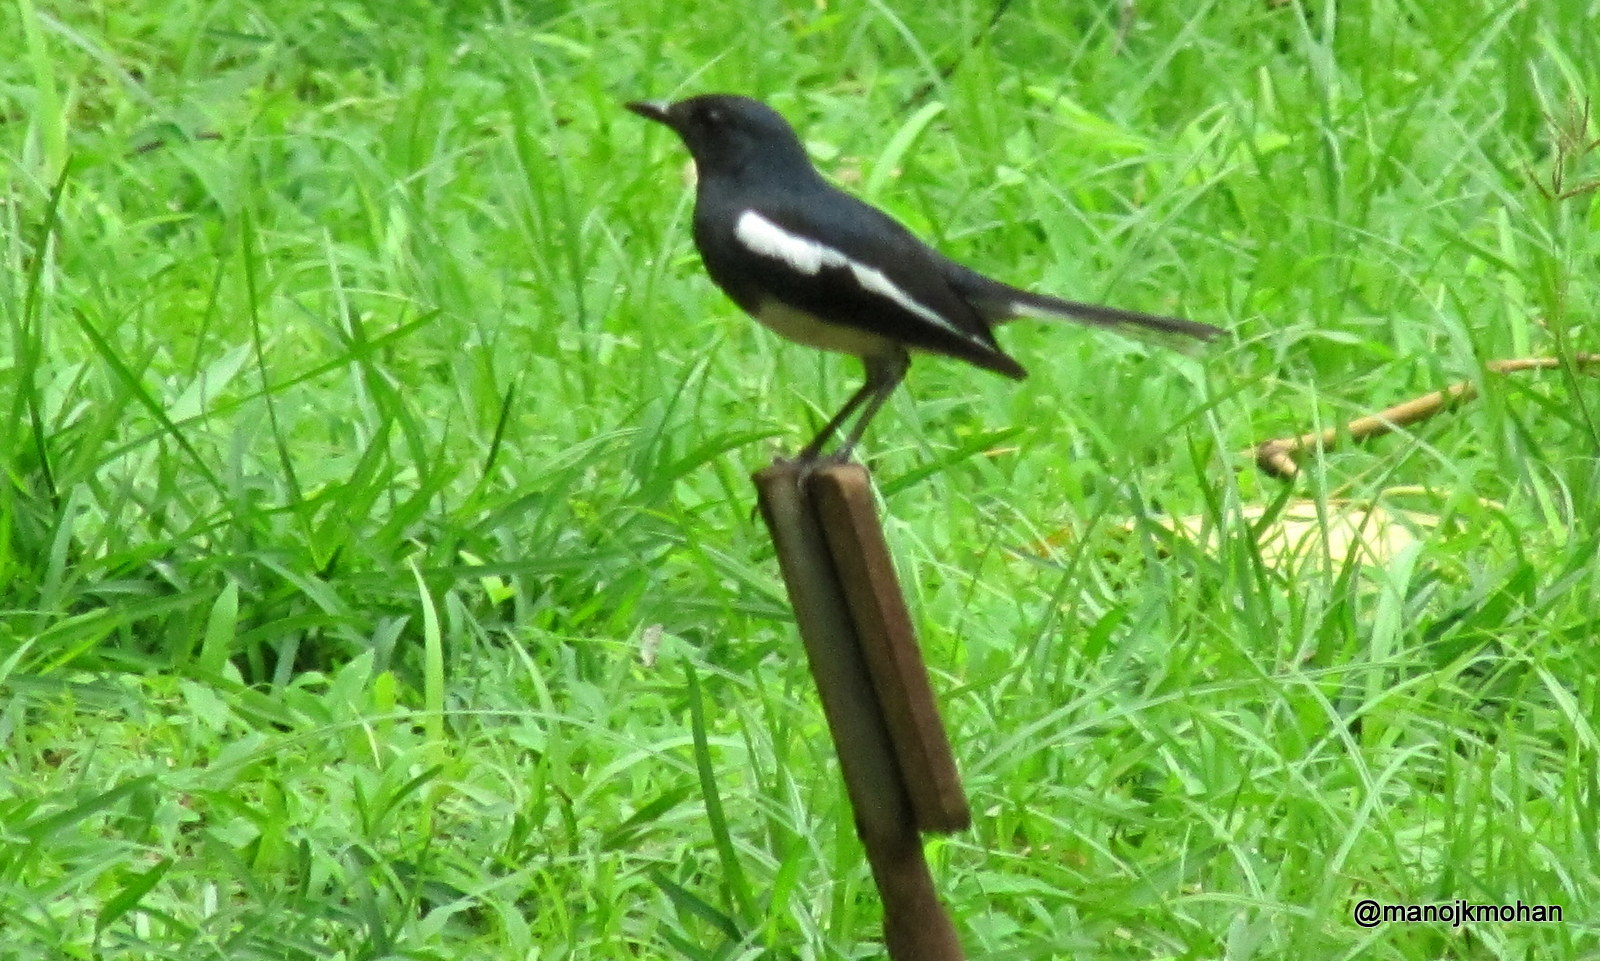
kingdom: Animalia
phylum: Chordata
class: Aves
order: Passeriformes
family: Muscicapidae
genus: Copsychus
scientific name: Copsychus saularis
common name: Oriental magpie-robin
